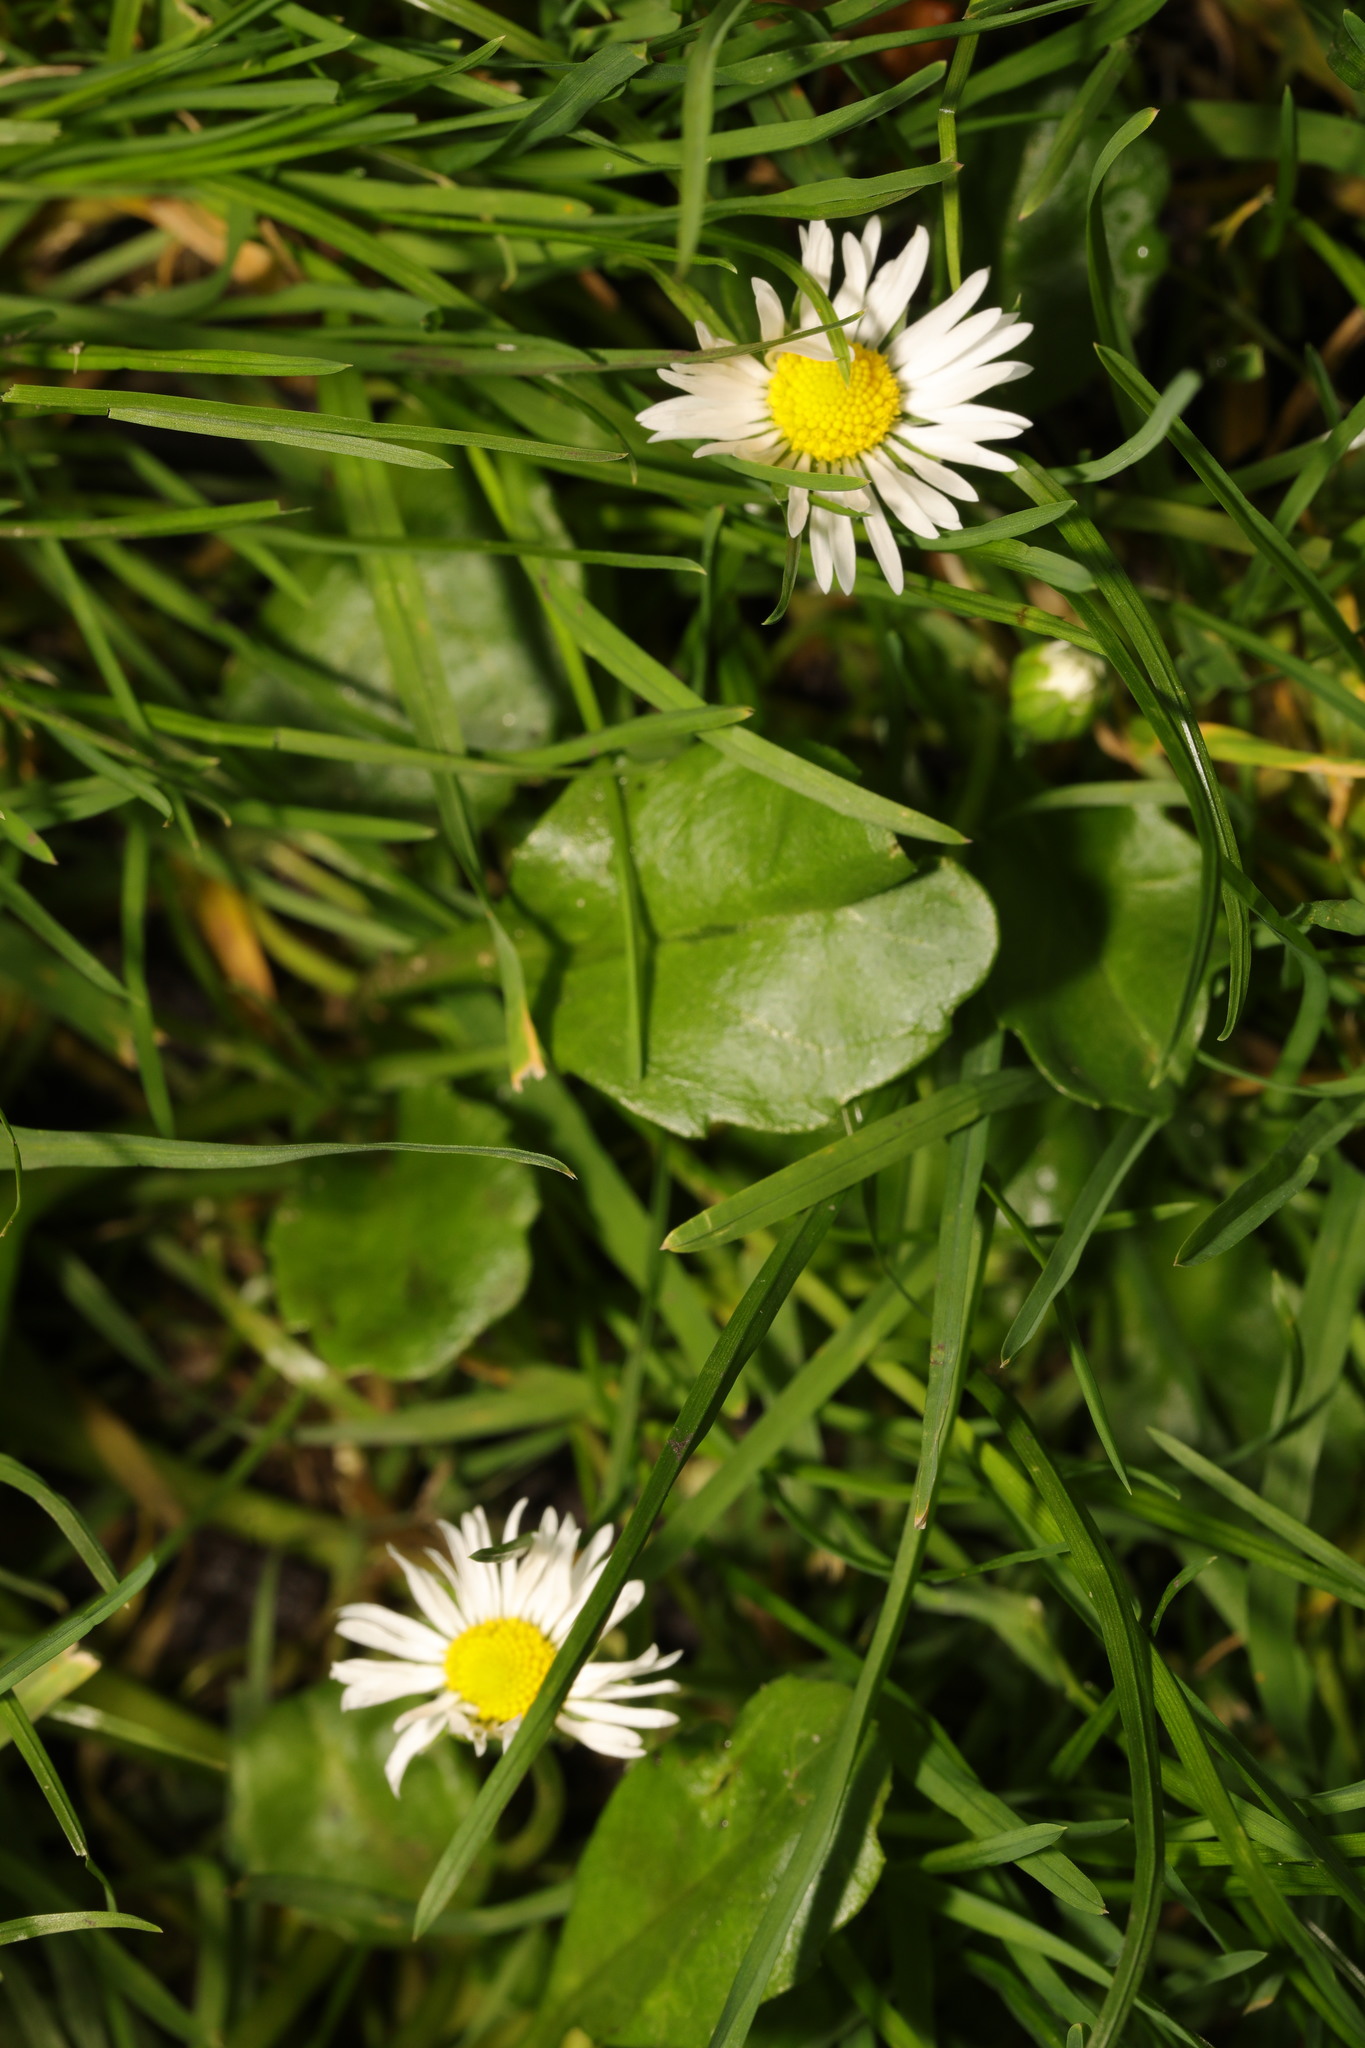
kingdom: Plantae
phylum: Tracheophyta
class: Magnoliopsida
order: Asterales
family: Asteraceae
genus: Bellis
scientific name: Bellis perennis
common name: Lawndaisy
